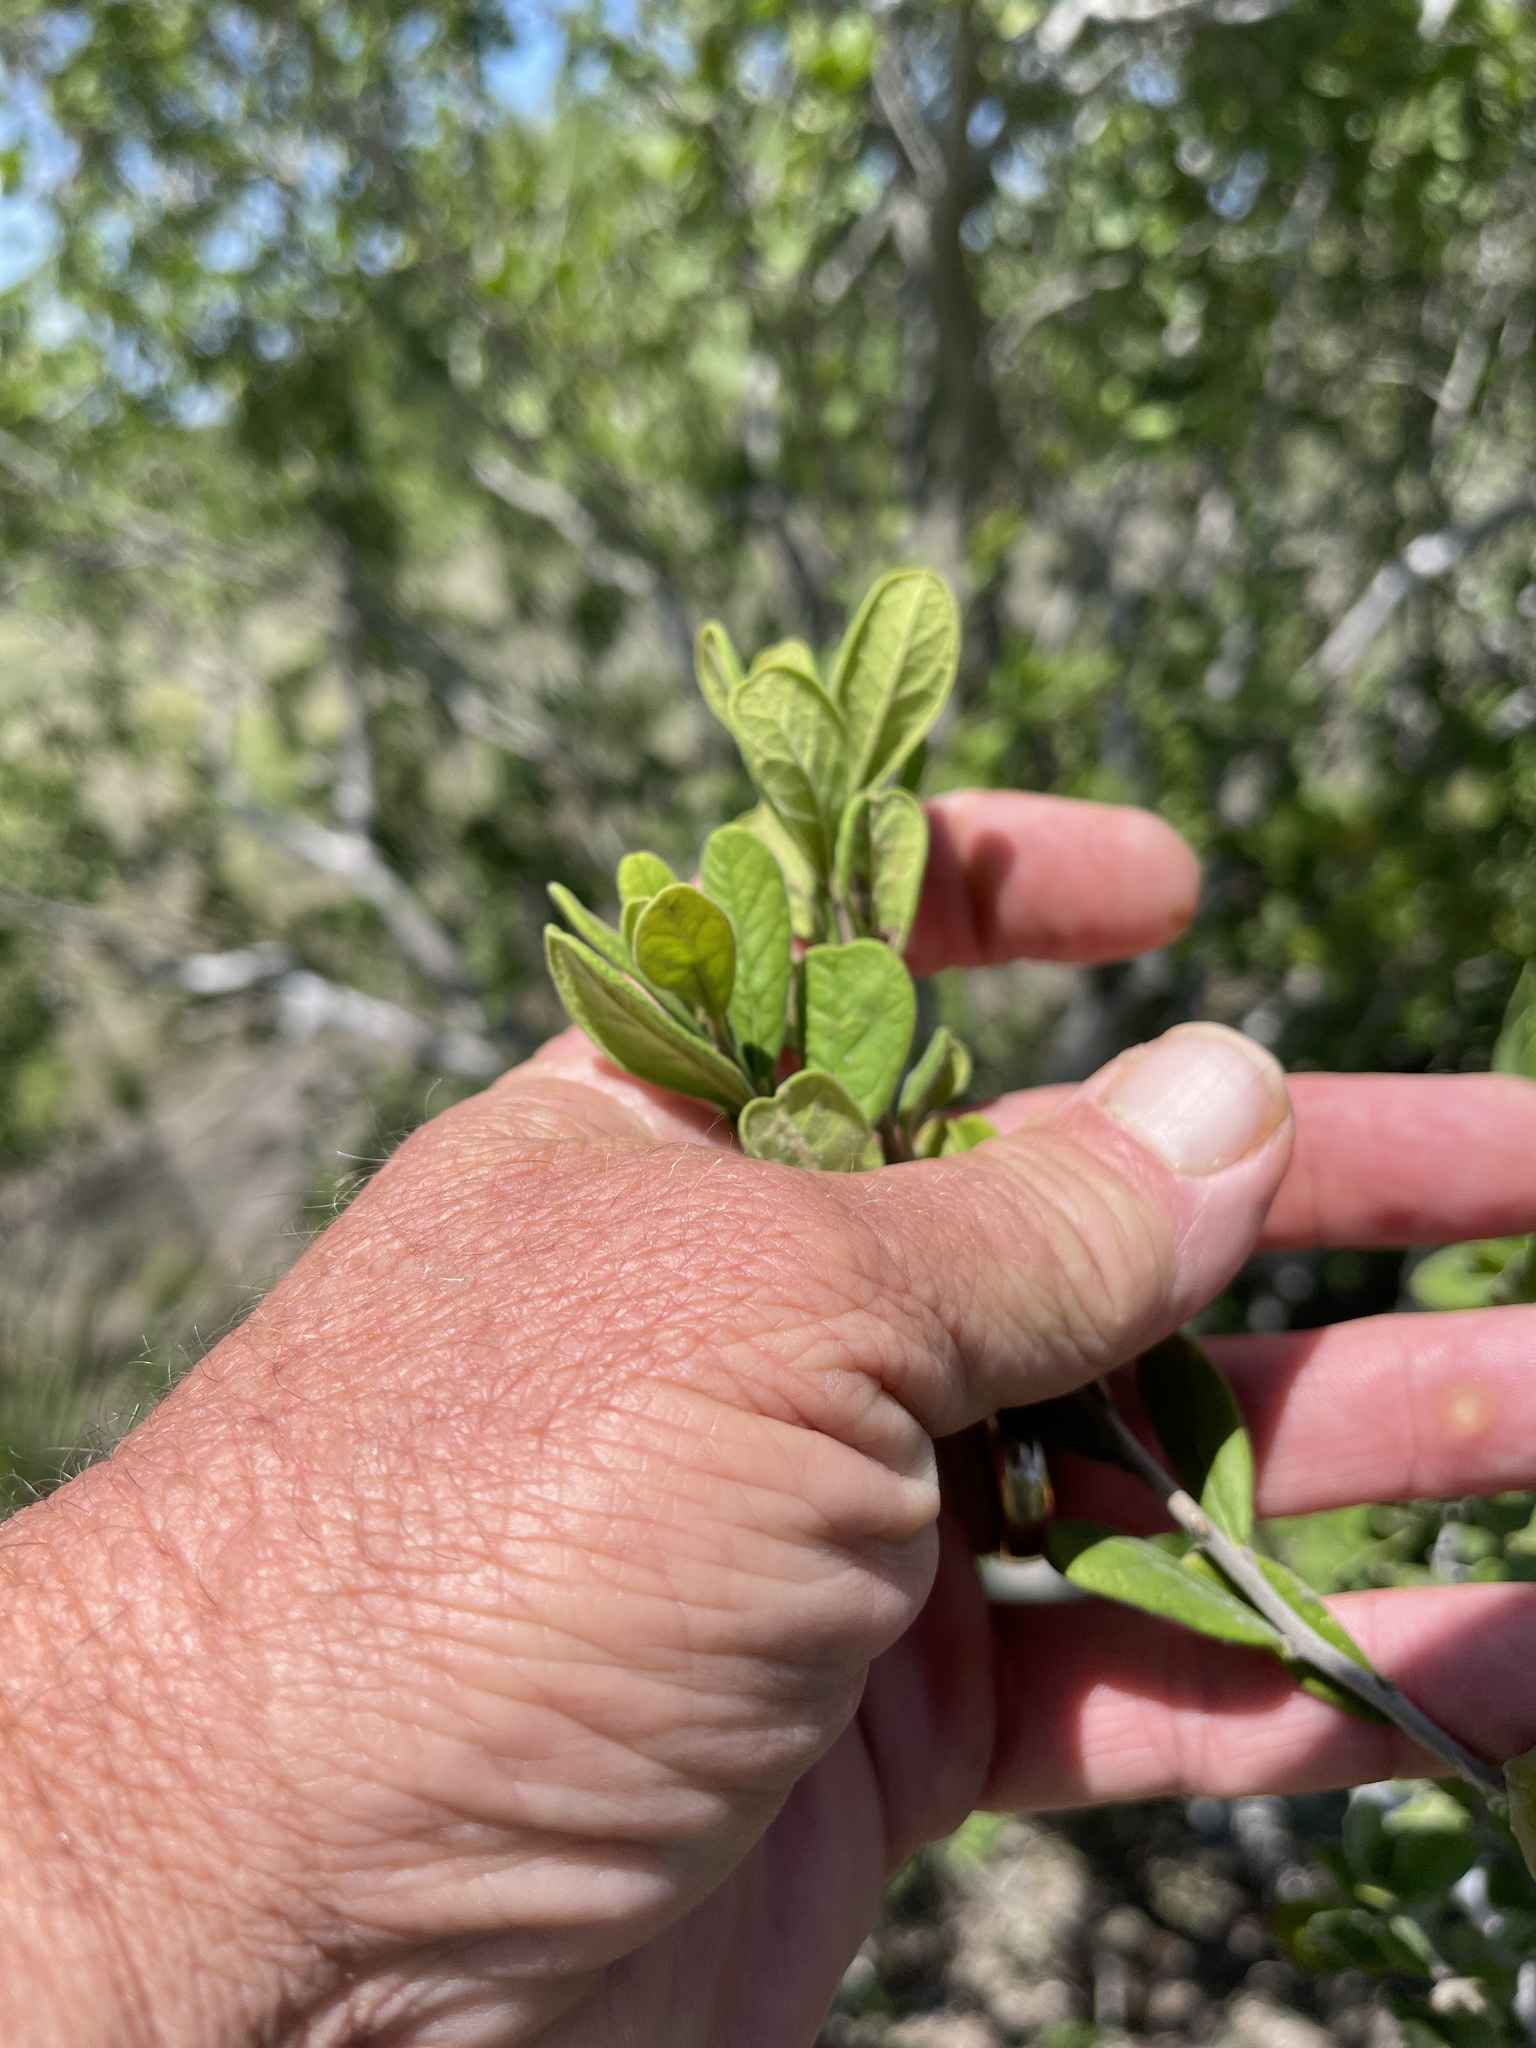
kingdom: Plantae
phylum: Tracheophyta
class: Magnoliopsida
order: Ericales
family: Ebenaceae
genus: Diospyros
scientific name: Diospyros texana
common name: Texas persimmon
